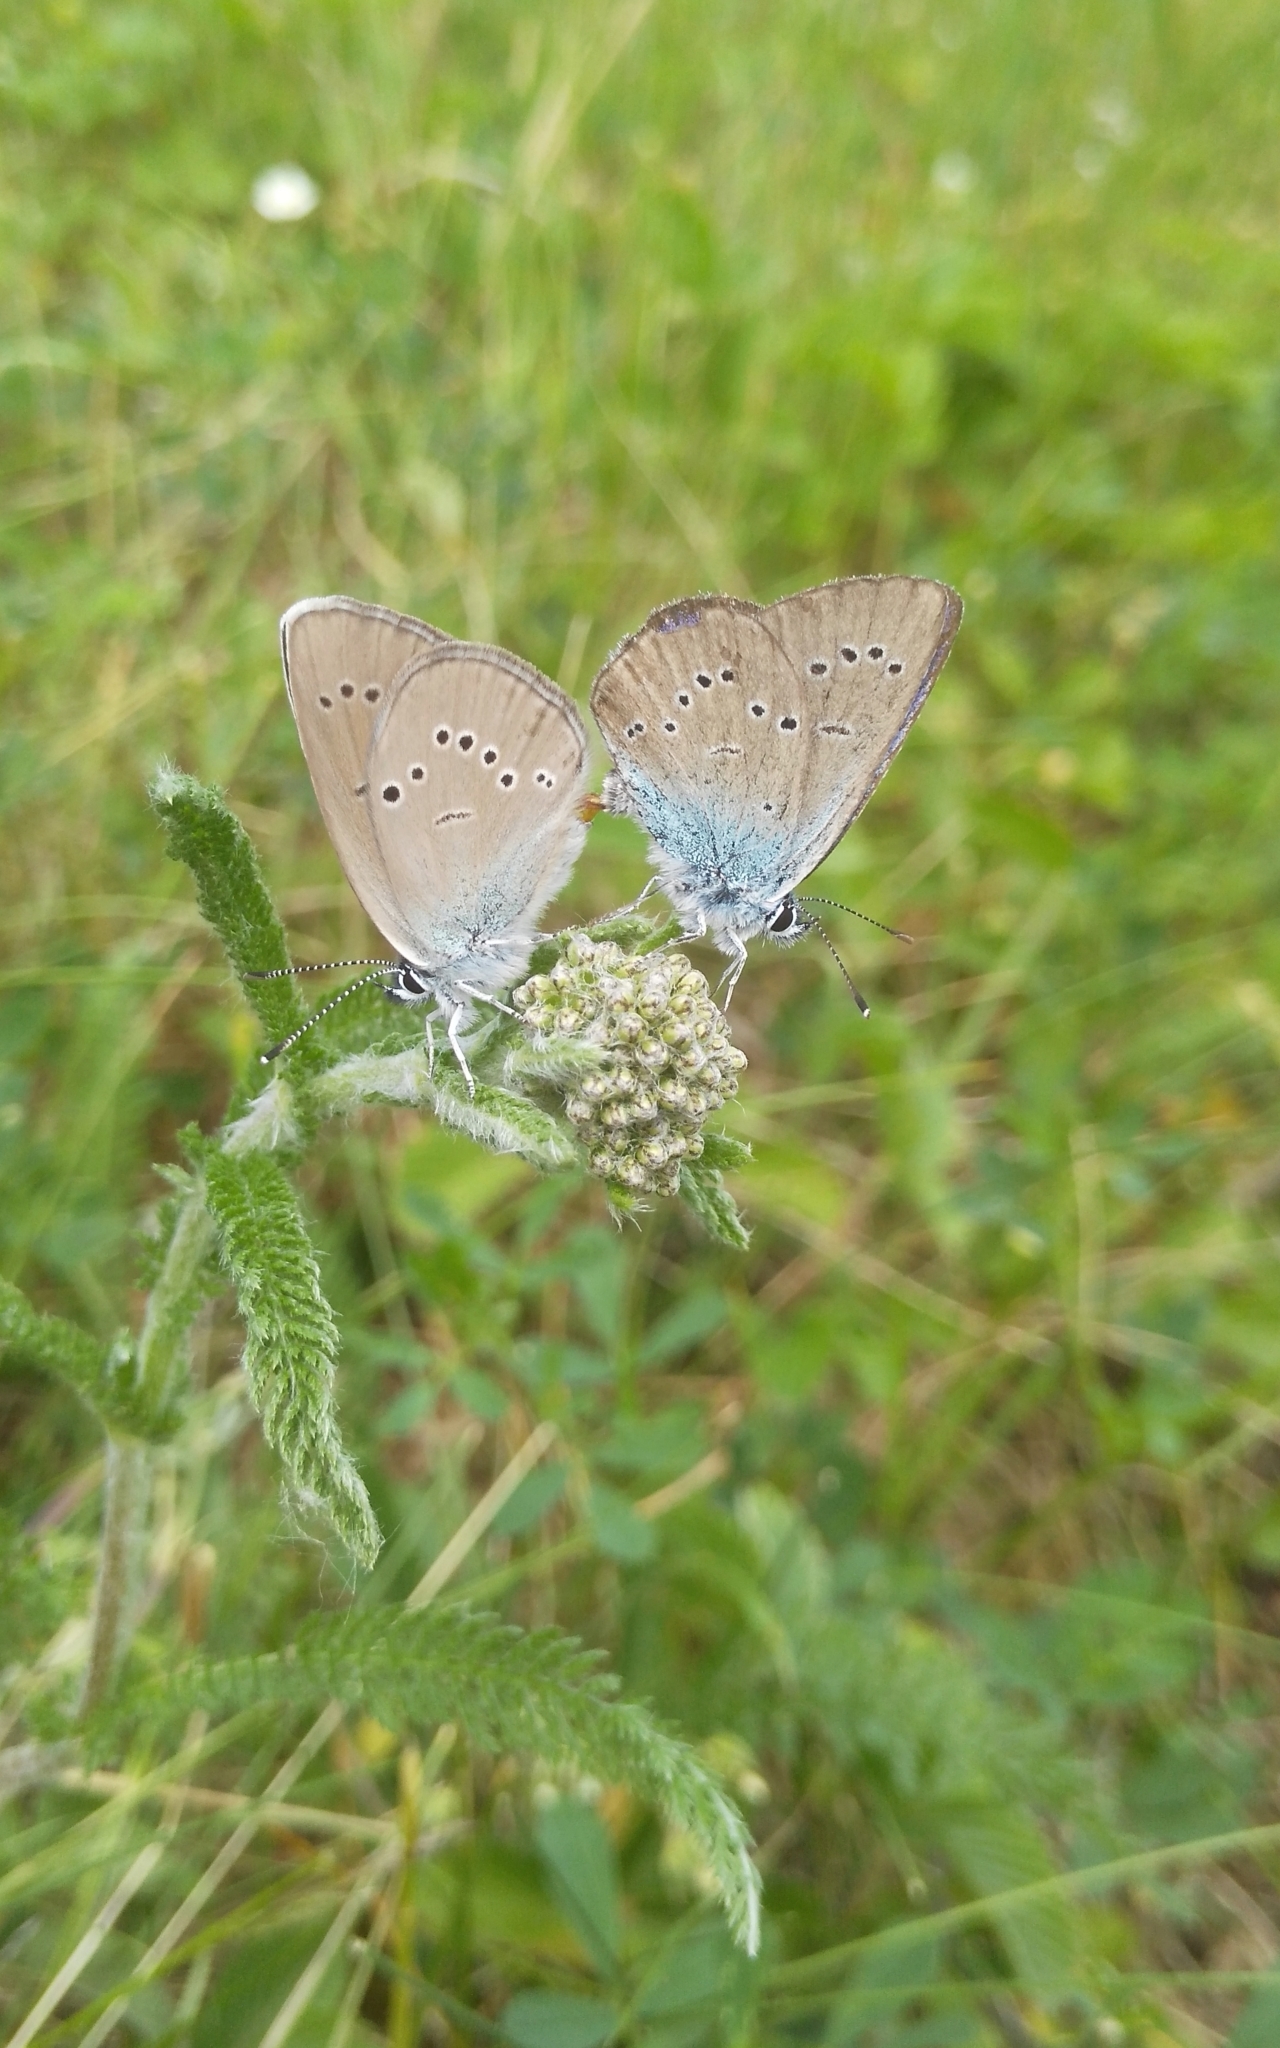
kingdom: Animalia
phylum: Arthropoda
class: Insecta
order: Lepidoptera
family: Lycaenidae
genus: Cyaniris
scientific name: Cyaniris semiargus
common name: Mazarine blue
